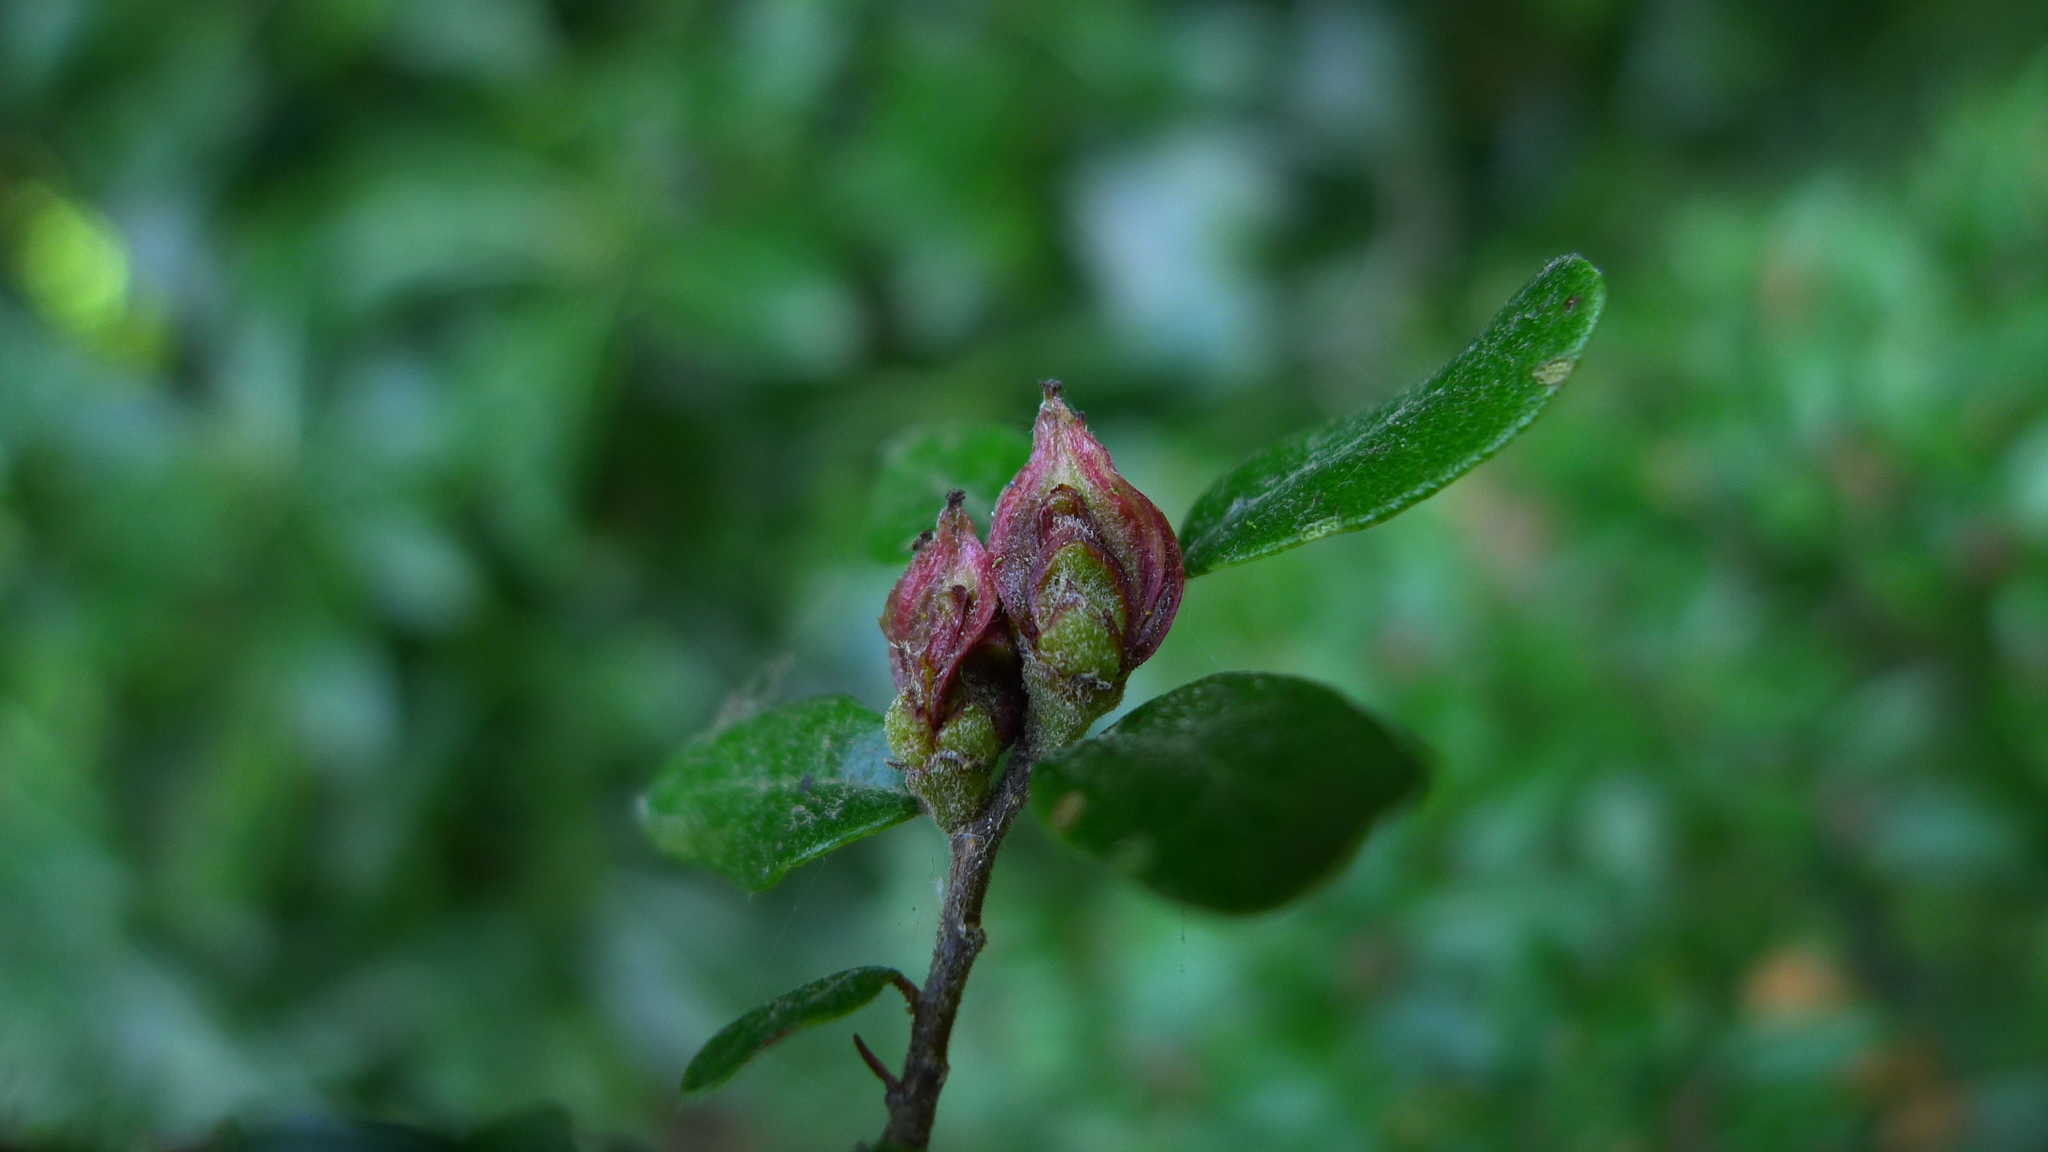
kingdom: Plantae
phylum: Tracheophyta
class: Magnoliopsida
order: Fagales
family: Nothofagaceae
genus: Nothofagus
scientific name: Nothofagus solandri
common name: Black beech
